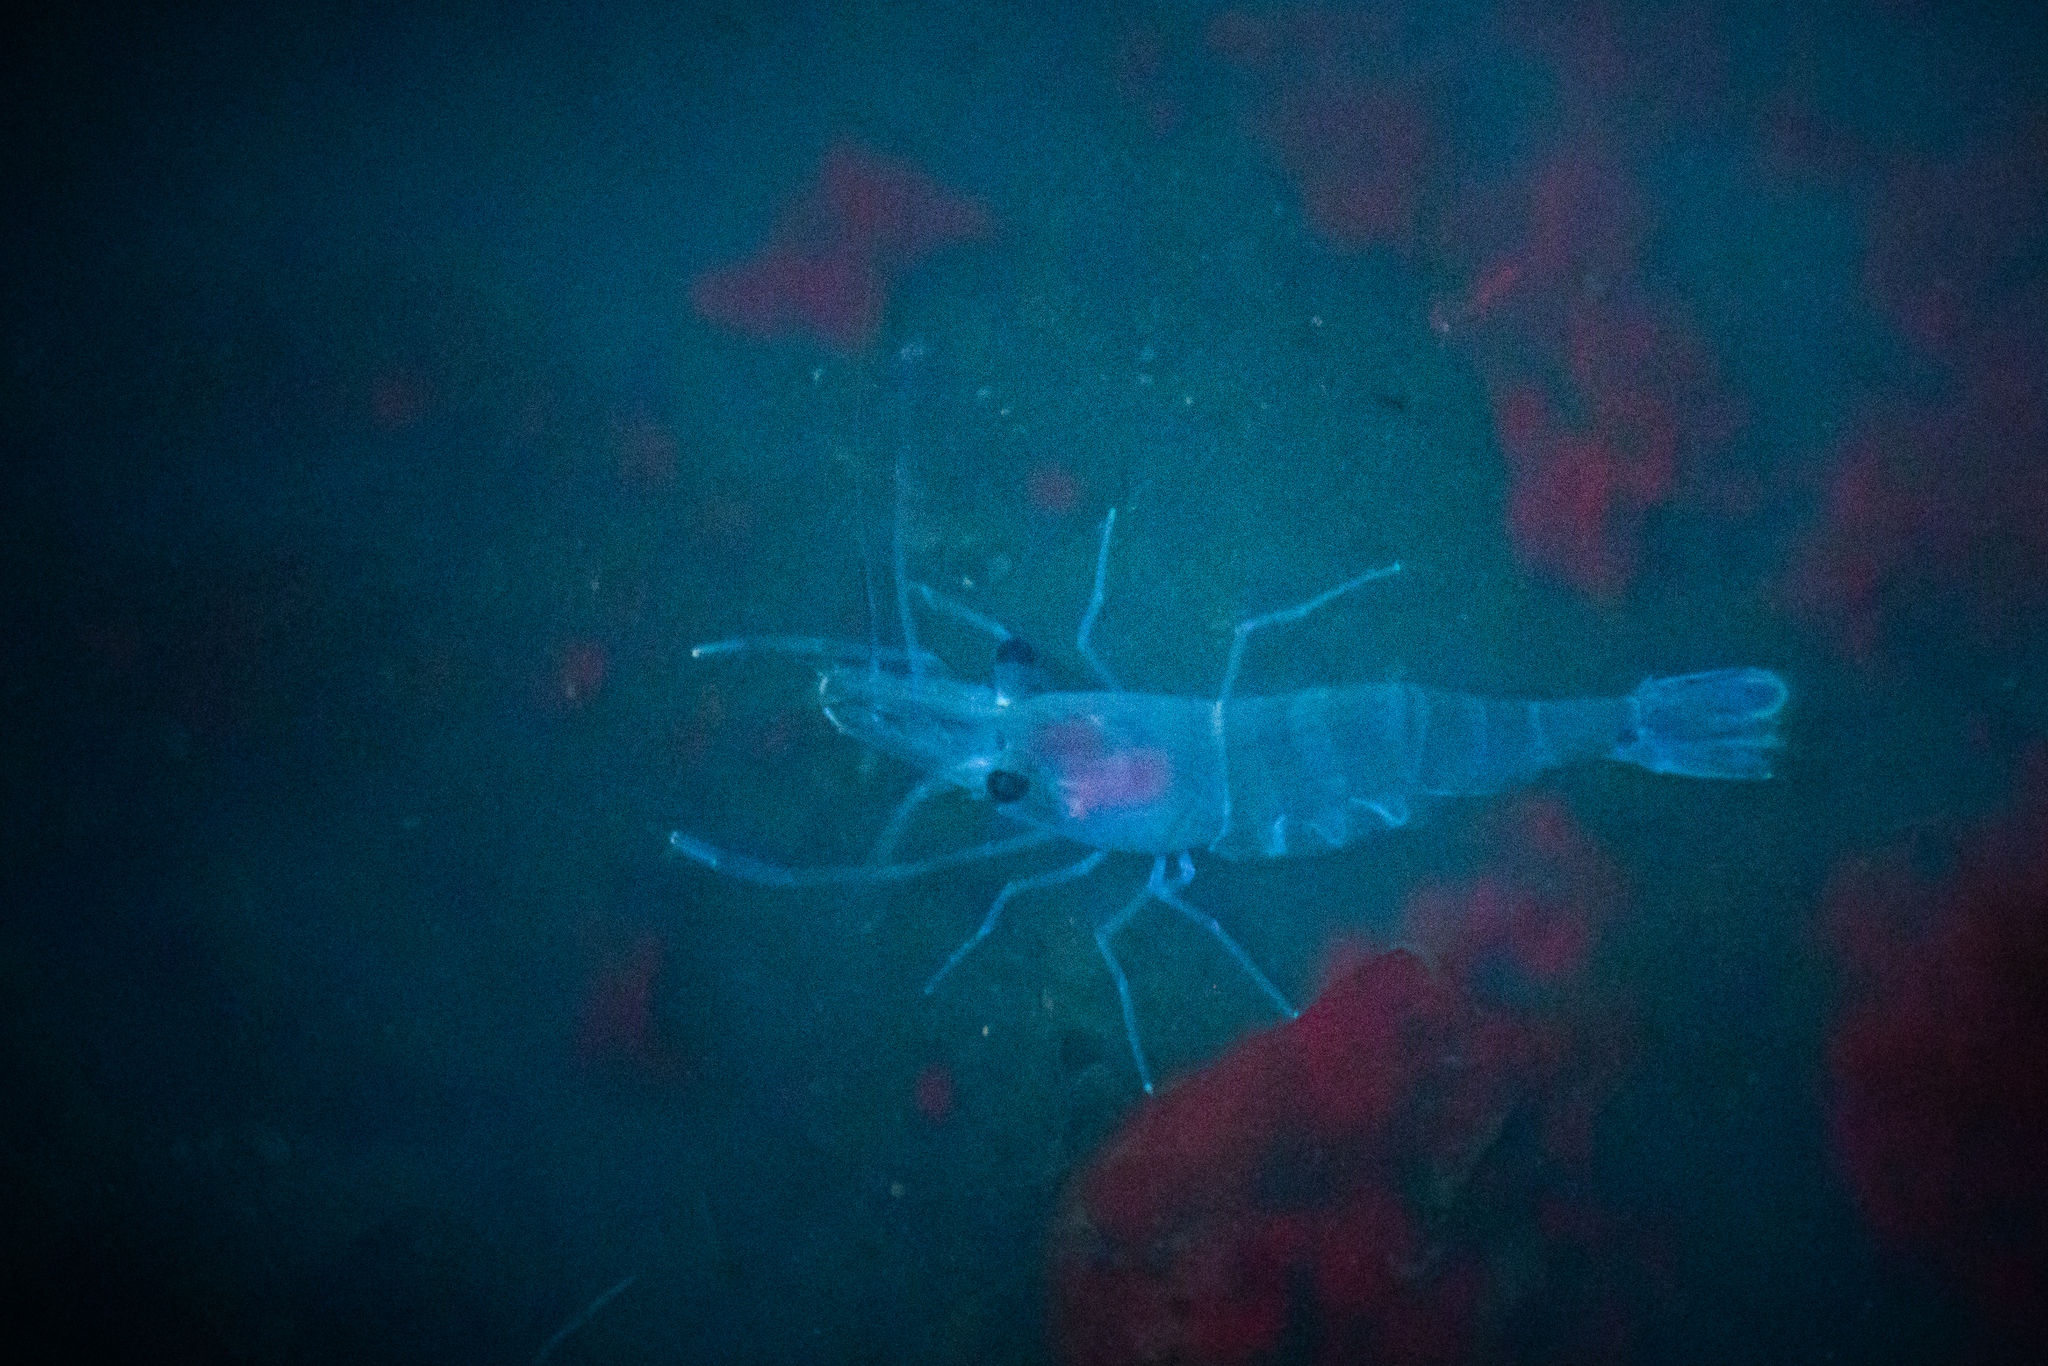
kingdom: Animalia
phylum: Arthropoda
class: Malacostraca
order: Decapoda
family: Palaemonidae
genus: Palaemon
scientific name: Palaemon affinis
